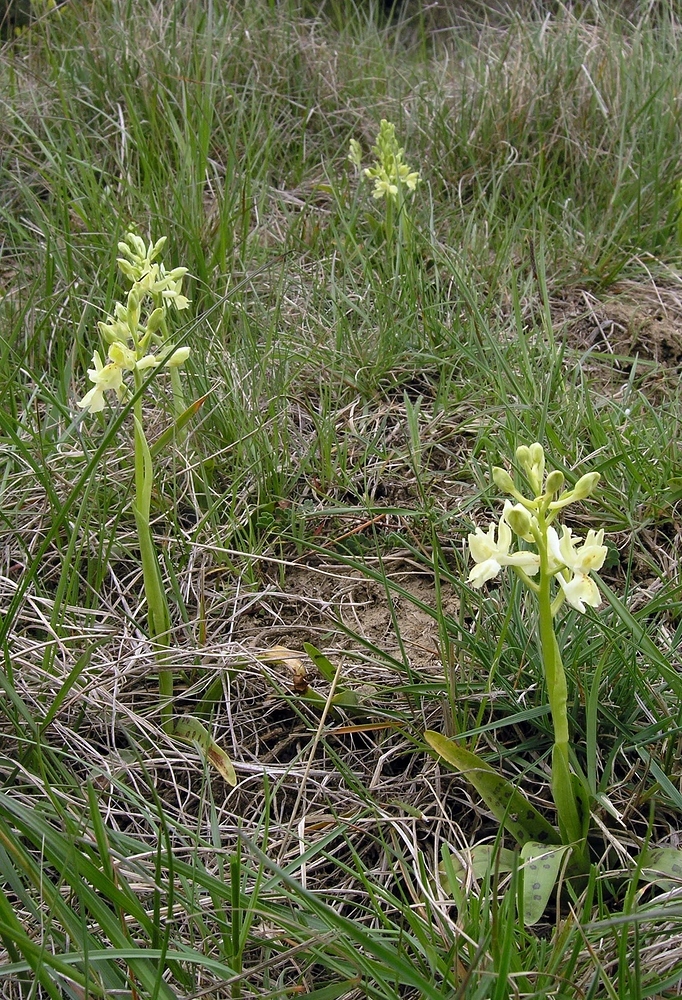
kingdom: Plantae
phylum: Tracheophyta
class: Liliopsida
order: Asparagales
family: Orchidaceae
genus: Orchis
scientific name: Orchis provincialis
